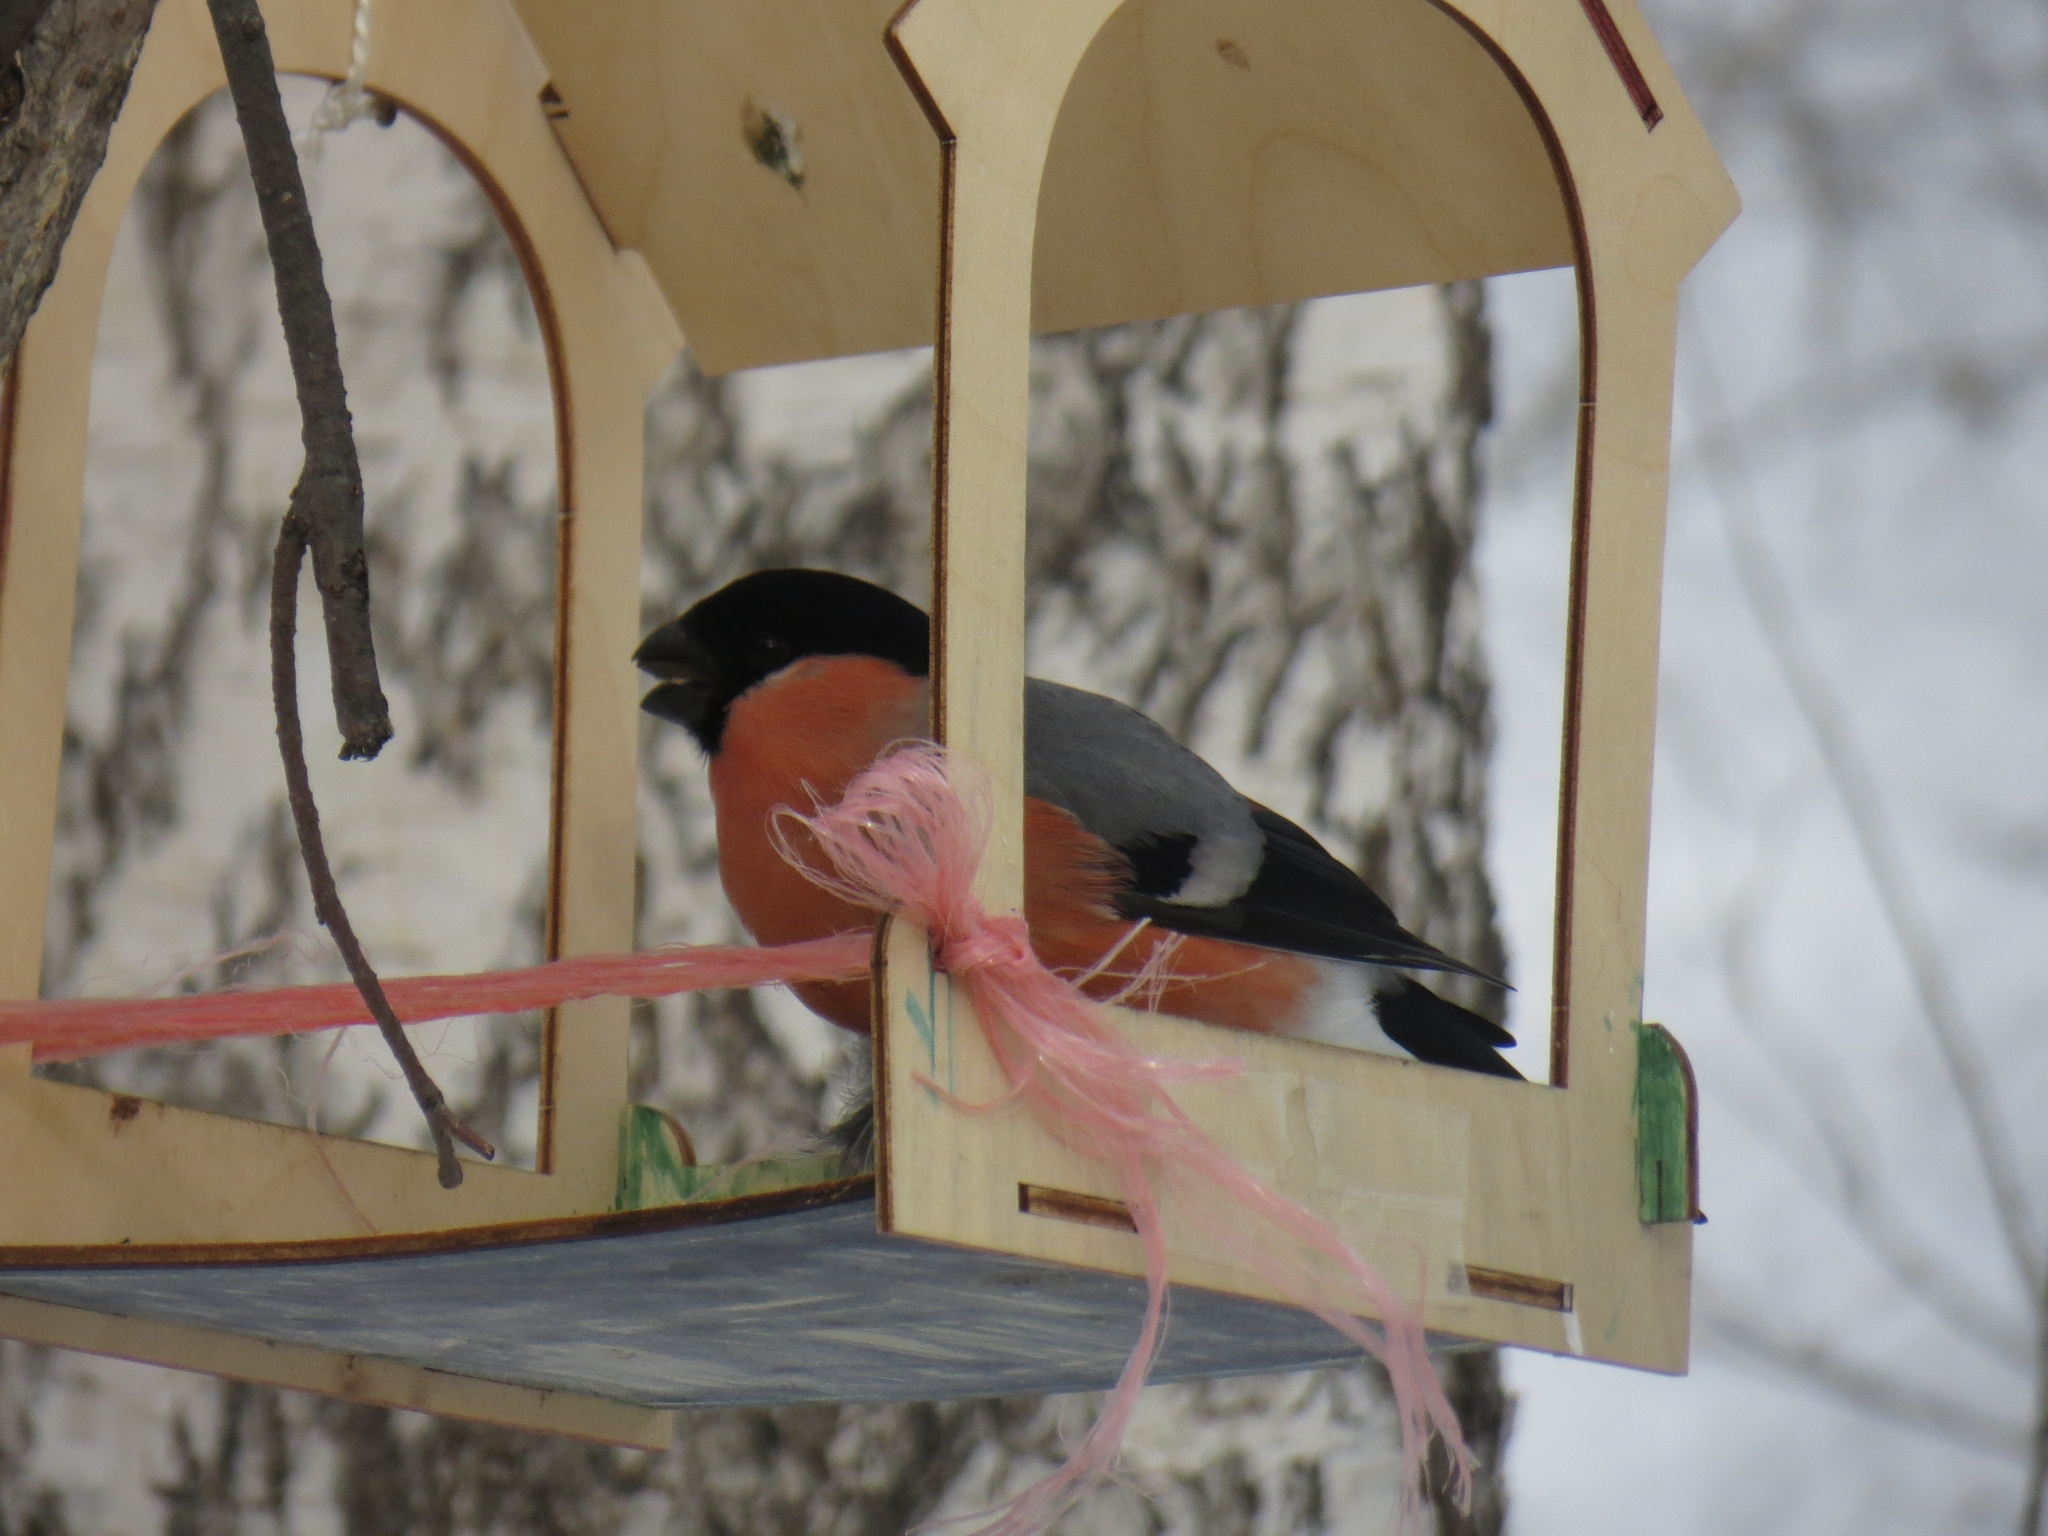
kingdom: Animalia
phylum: Chordata
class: Aves
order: Passeriformes
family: Fringillidae
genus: Pyrrhula
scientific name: Pyrrhula pyrrhula
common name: Eurasian bullfinch
